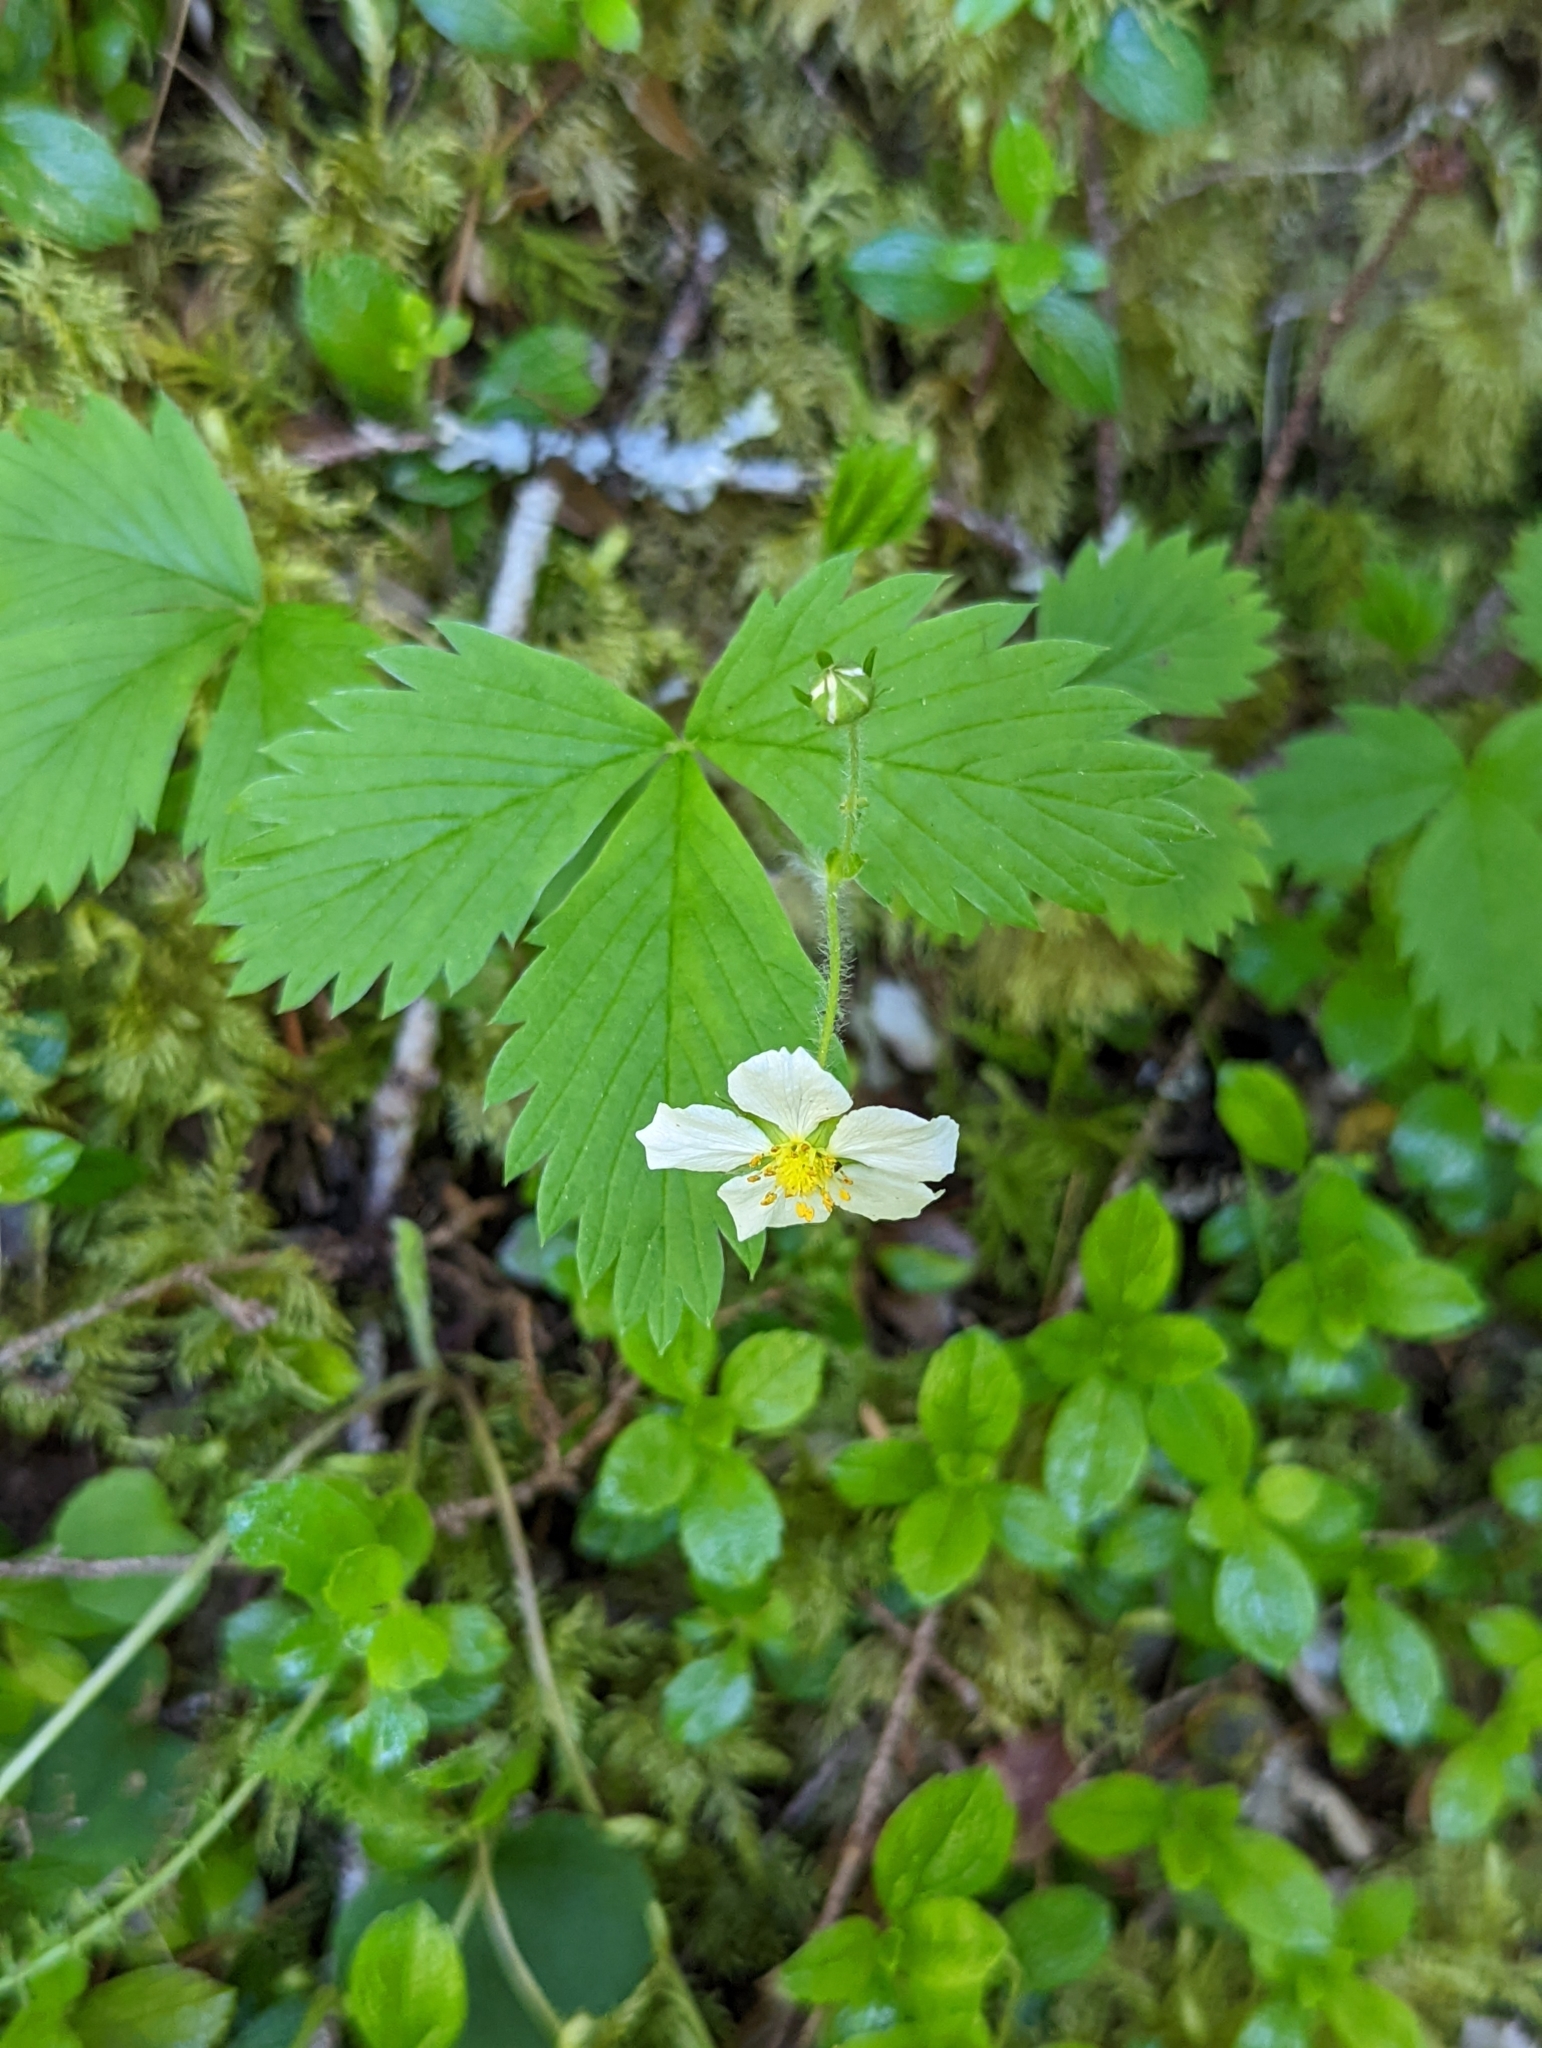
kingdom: Plantae
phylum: Tracheophyta
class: Magnoliopsida
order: Rosales
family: Rosaceae
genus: Fragaria
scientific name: Fragaria vesca
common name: Wild strawberry
